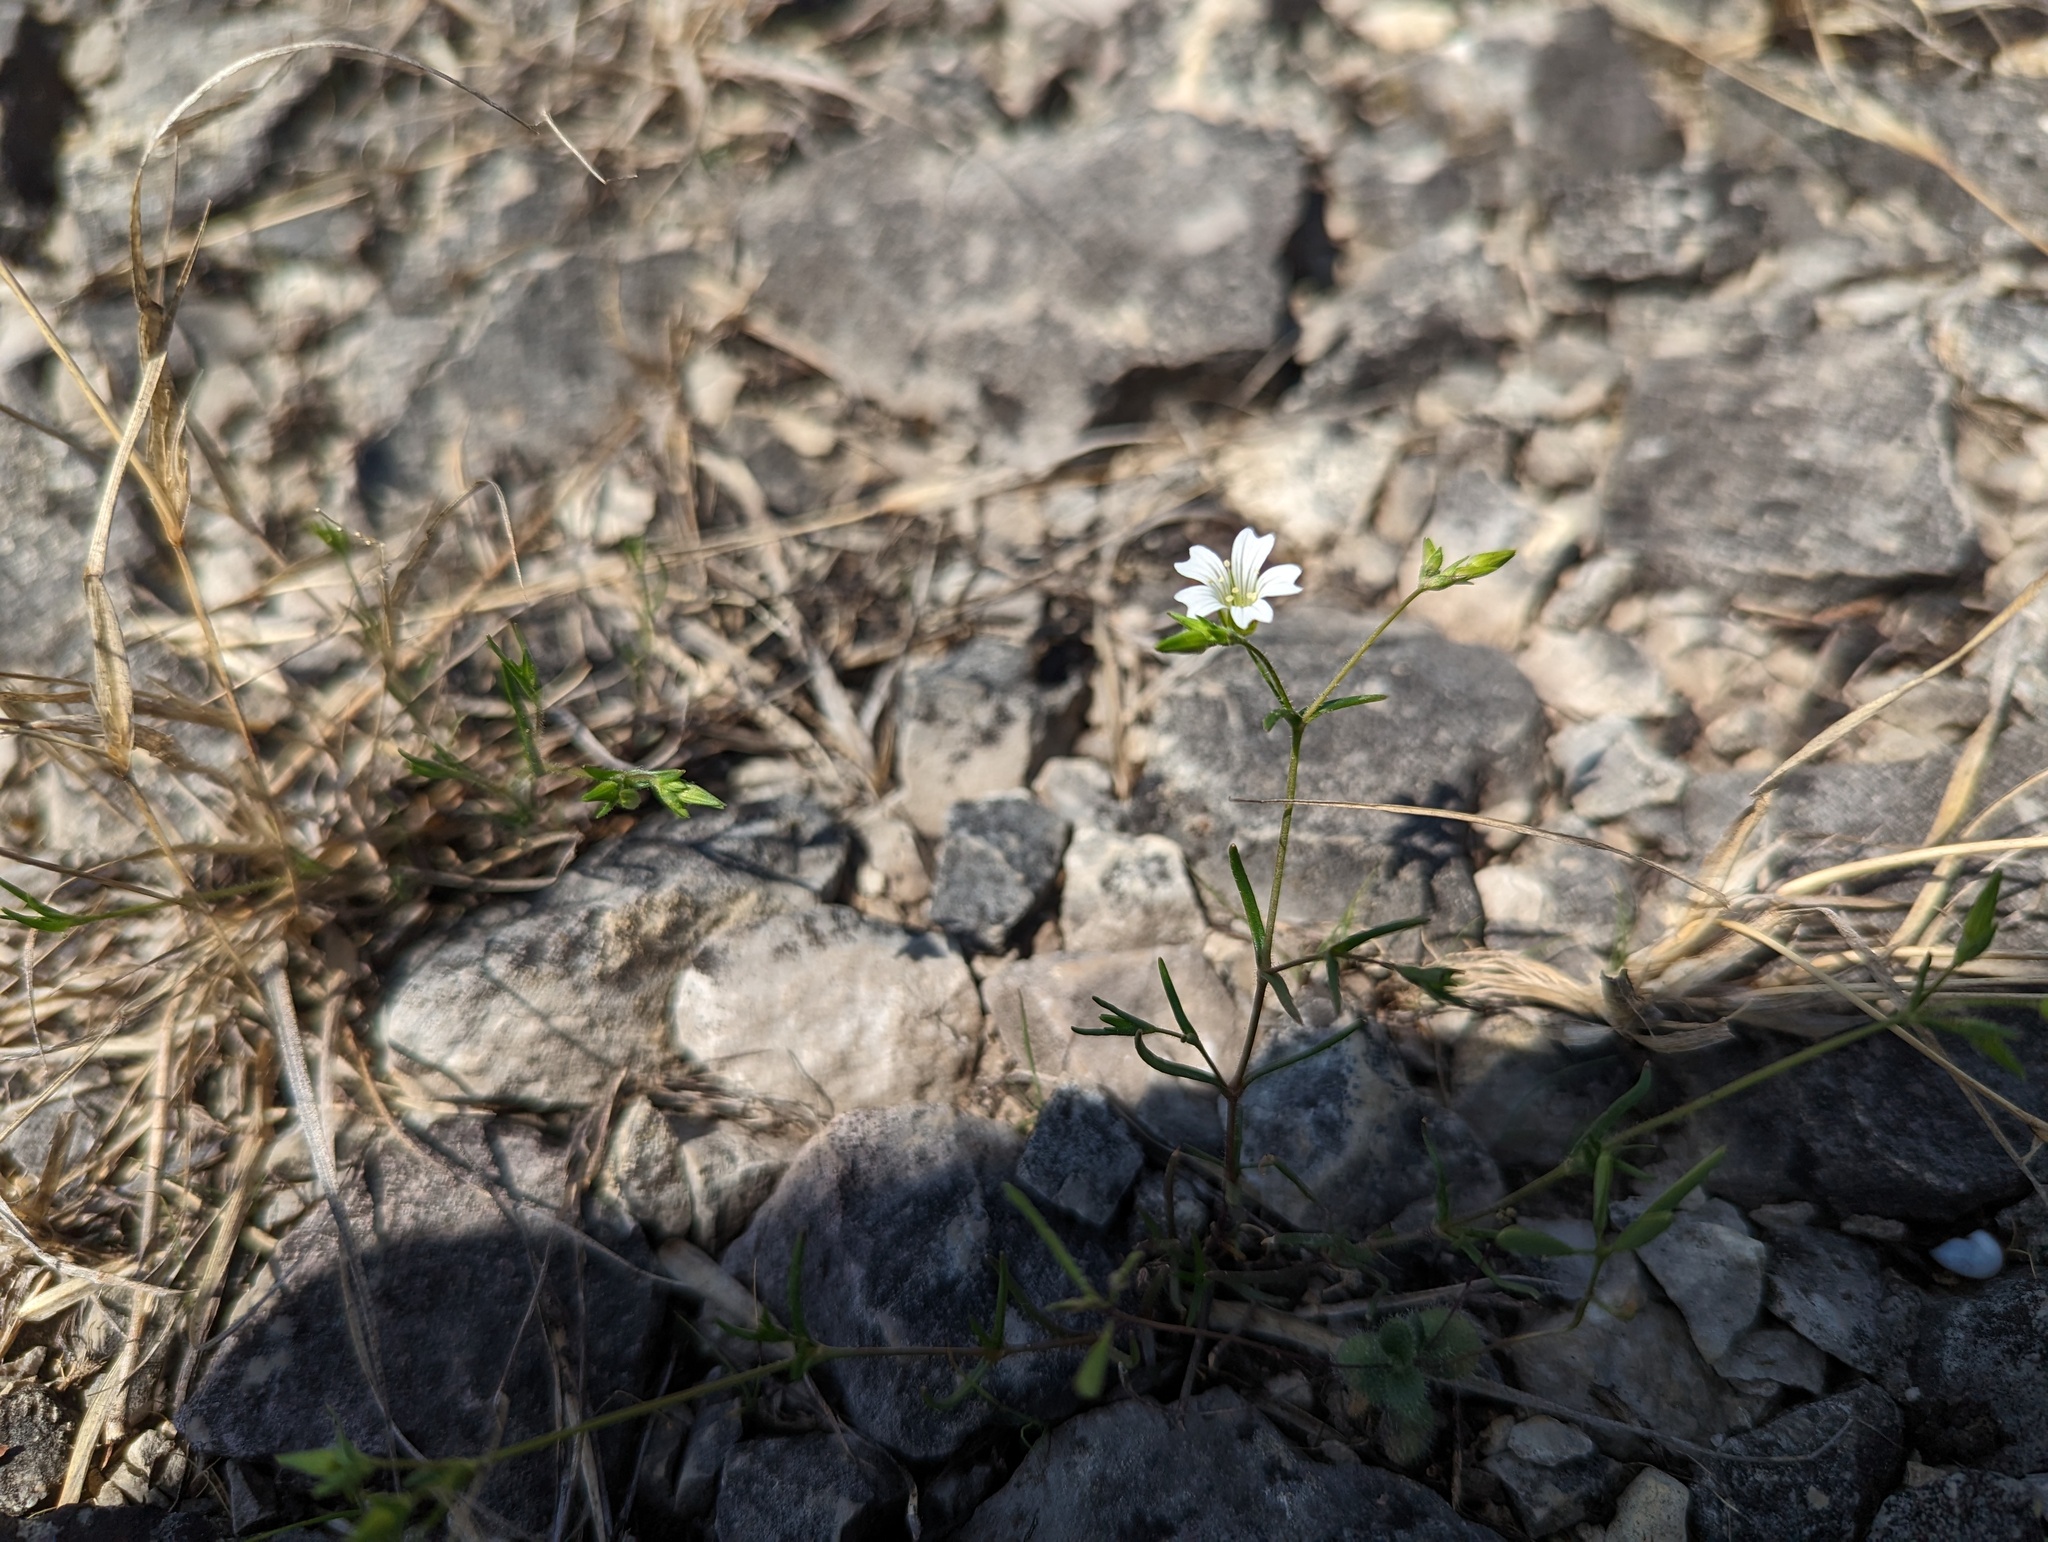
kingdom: Plantae
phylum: Tracheophyta
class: Magnoliopsida
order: Caryophyllales
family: Caryophyllaceae
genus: Mononeuria
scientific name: Mononeuria patula
